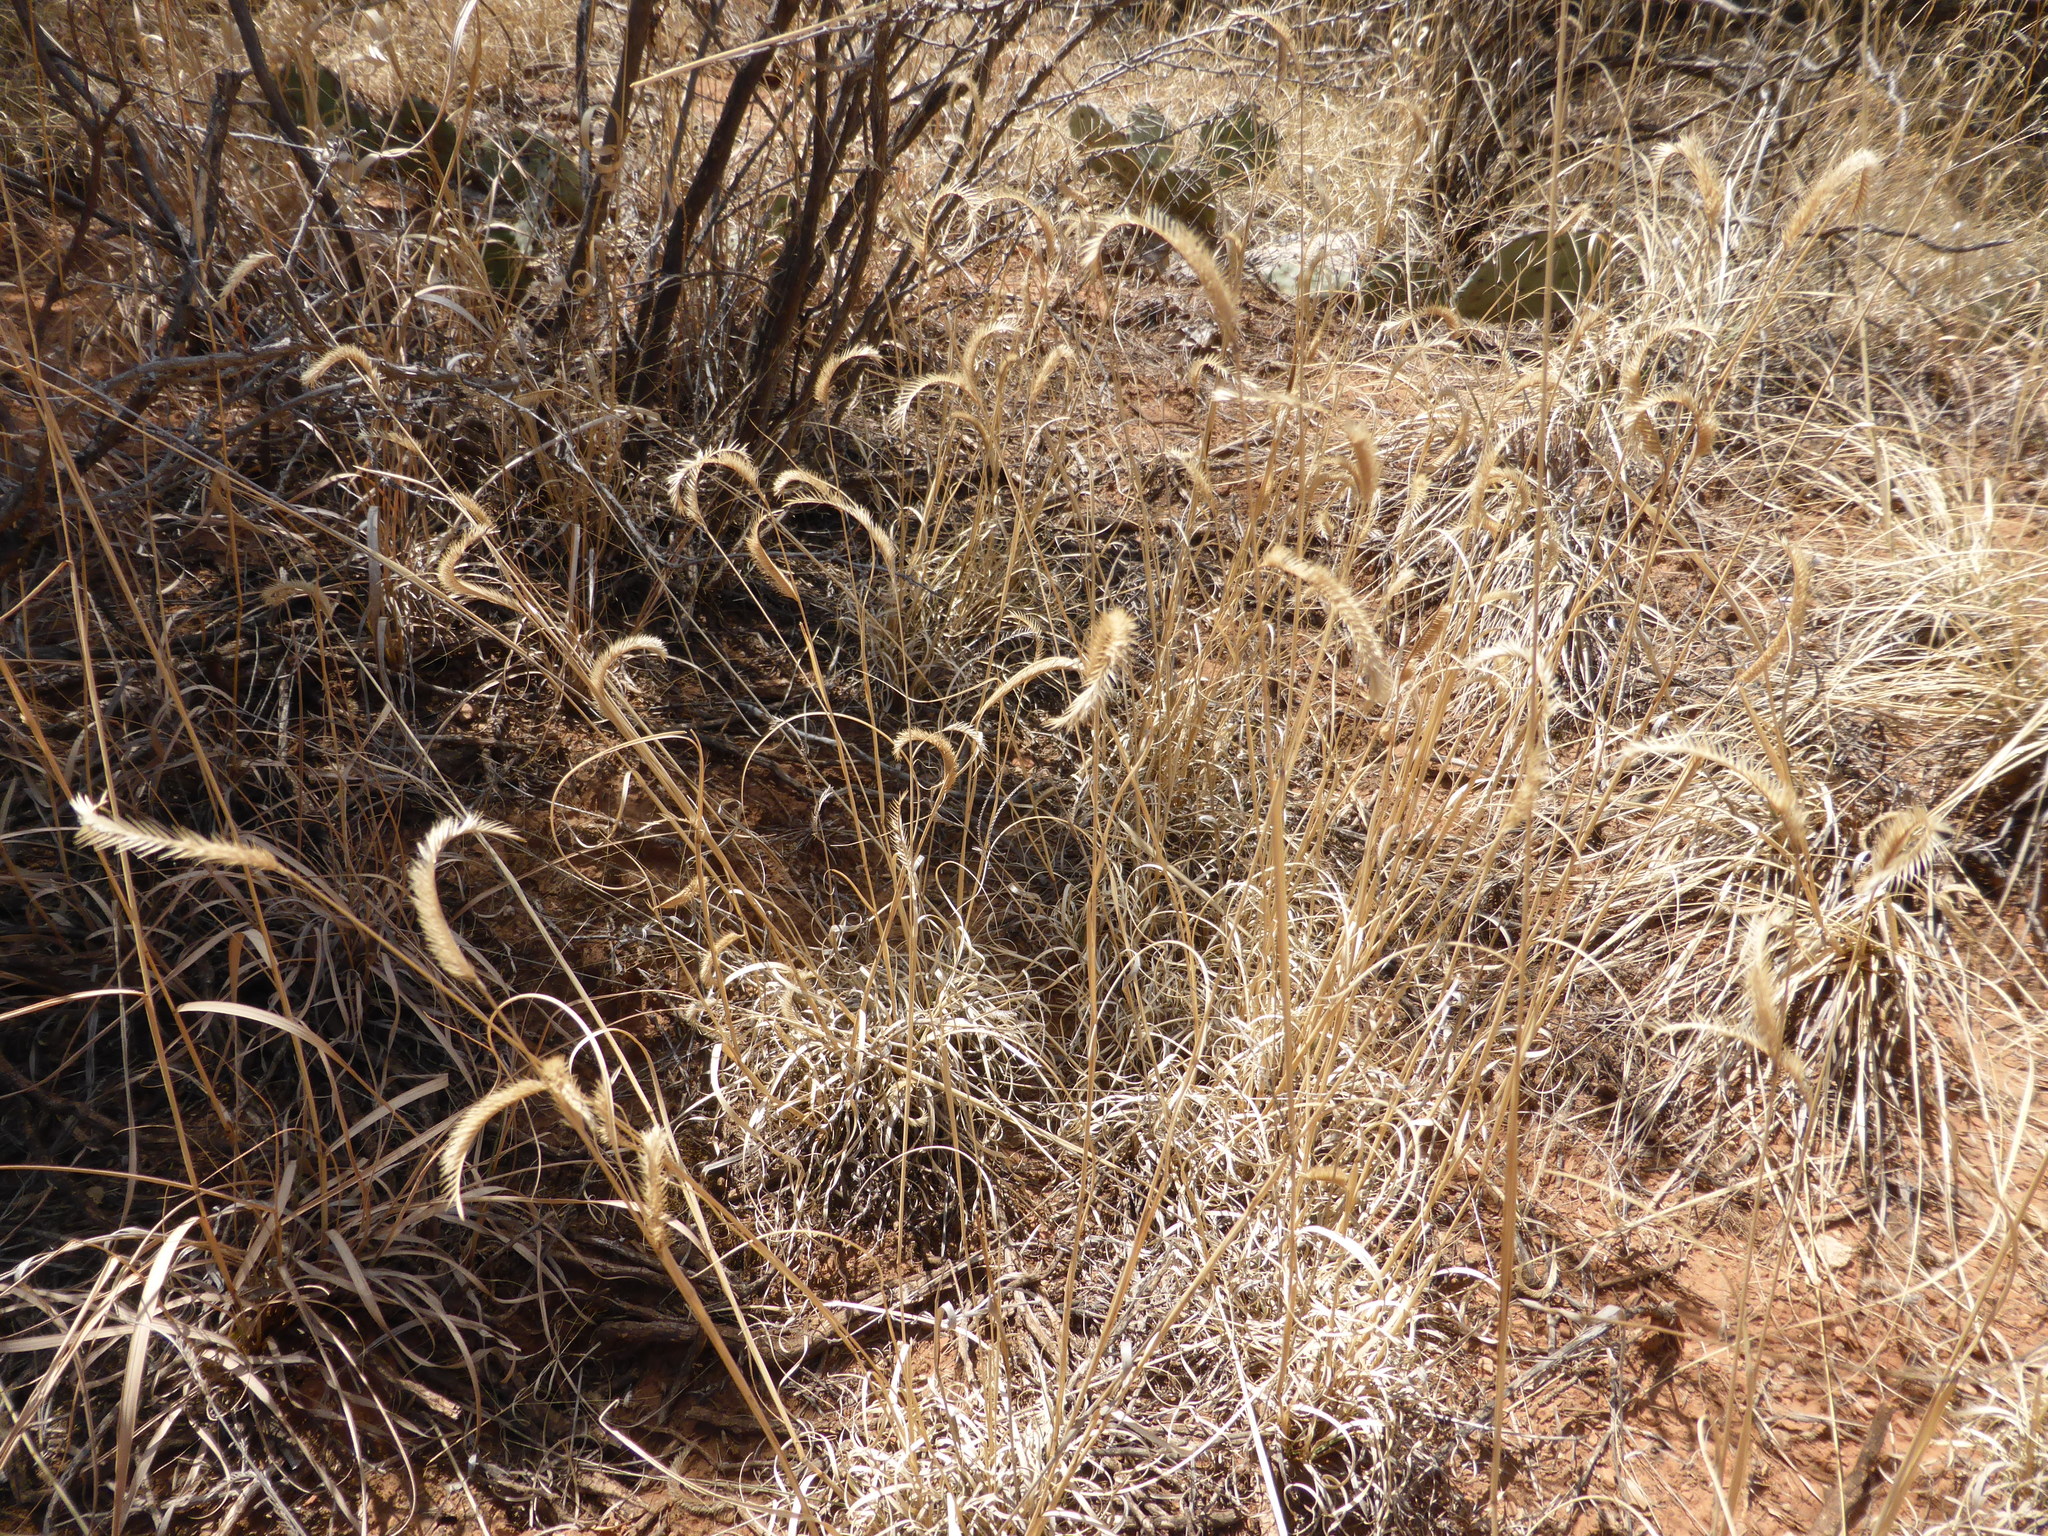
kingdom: Plantae
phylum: Tracheophyta
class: Liliopsida
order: Poales
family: Poaceae
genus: Bouteloua
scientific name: Bouteloua gracilis
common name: Blue grama
